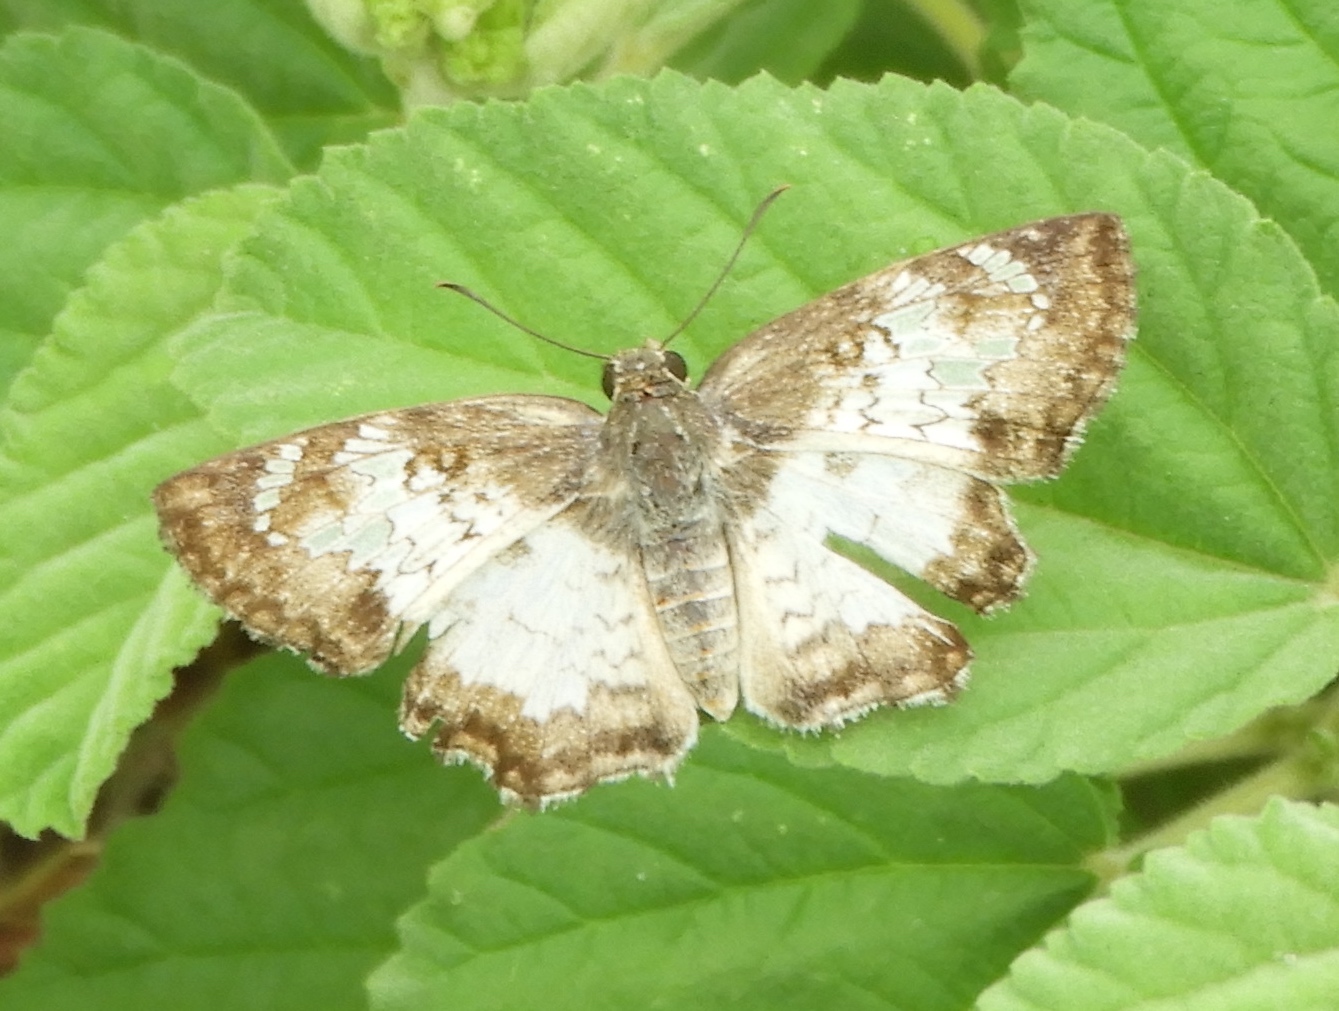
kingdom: Animalia
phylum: Arthropoda
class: Insecta
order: Lepidoptera
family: Hesperiidae
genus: Antigonus
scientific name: Antigonus emorsa
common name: White spurwing
